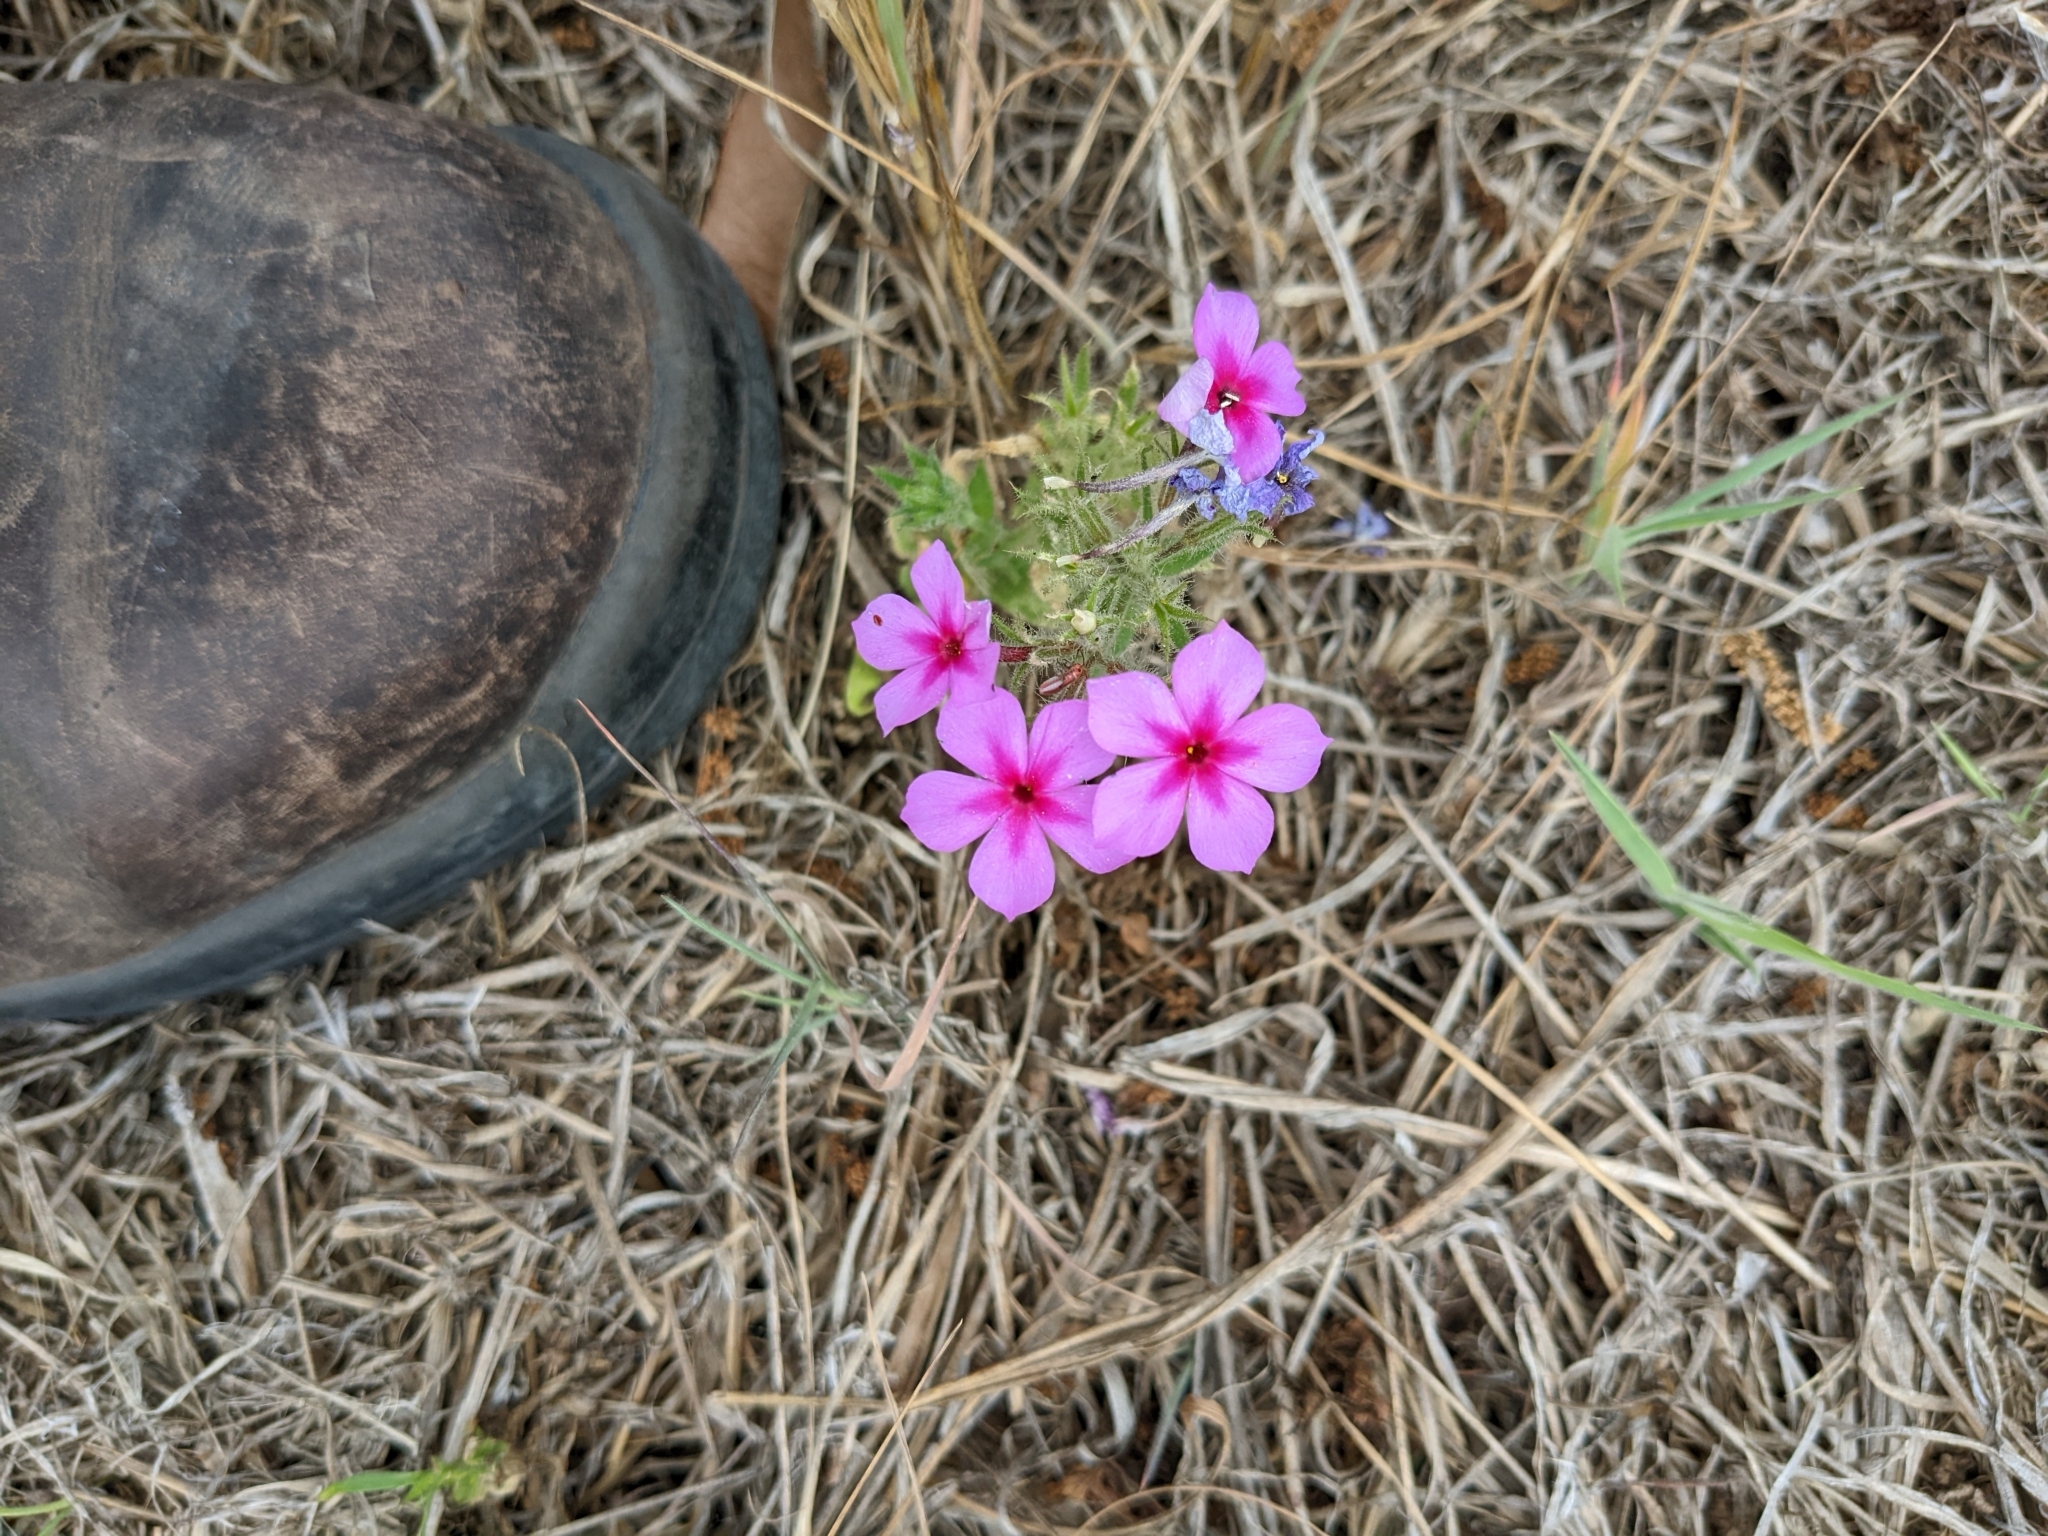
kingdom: Plantae
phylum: Tracheophyta
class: Magnoliopsida
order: Ericales
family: Polemoniaceae
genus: Phlox
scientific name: Phlox drummondii
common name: Drummond's phlox
